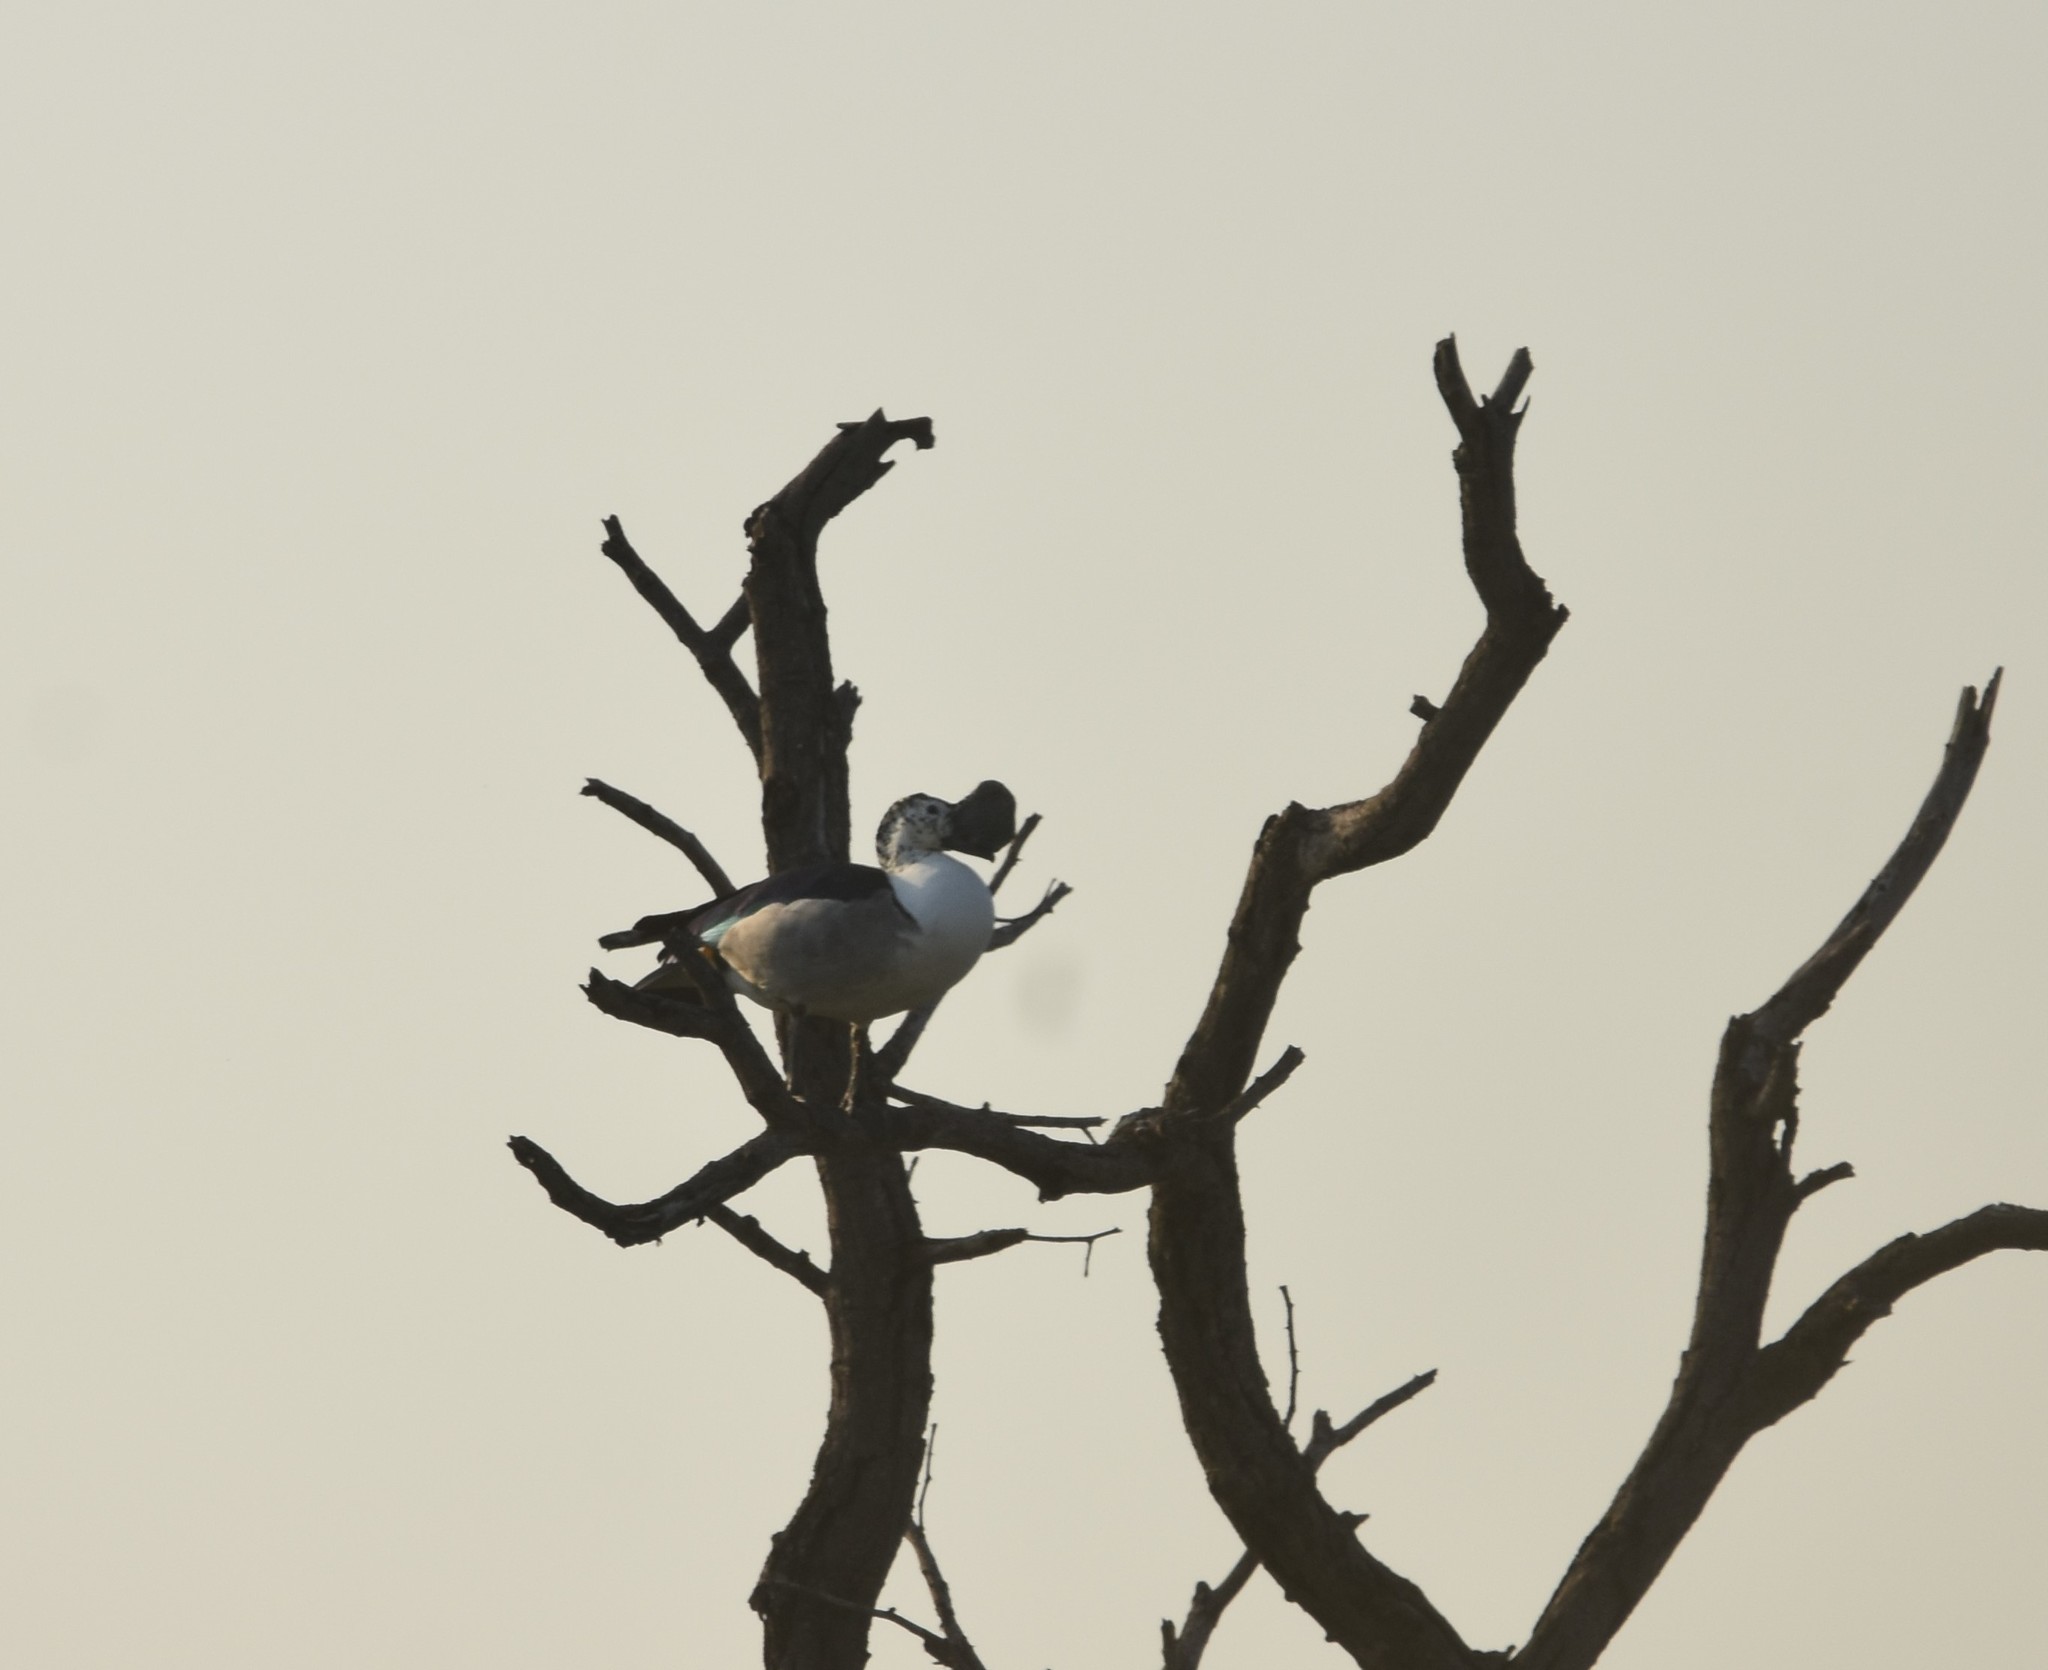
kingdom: Animalia
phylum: Chordata
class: Aves
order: Anseriformes
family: Anatidae
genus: Sarkidiornis
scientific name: Sarkidiornis melanotos
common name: Comb duck
